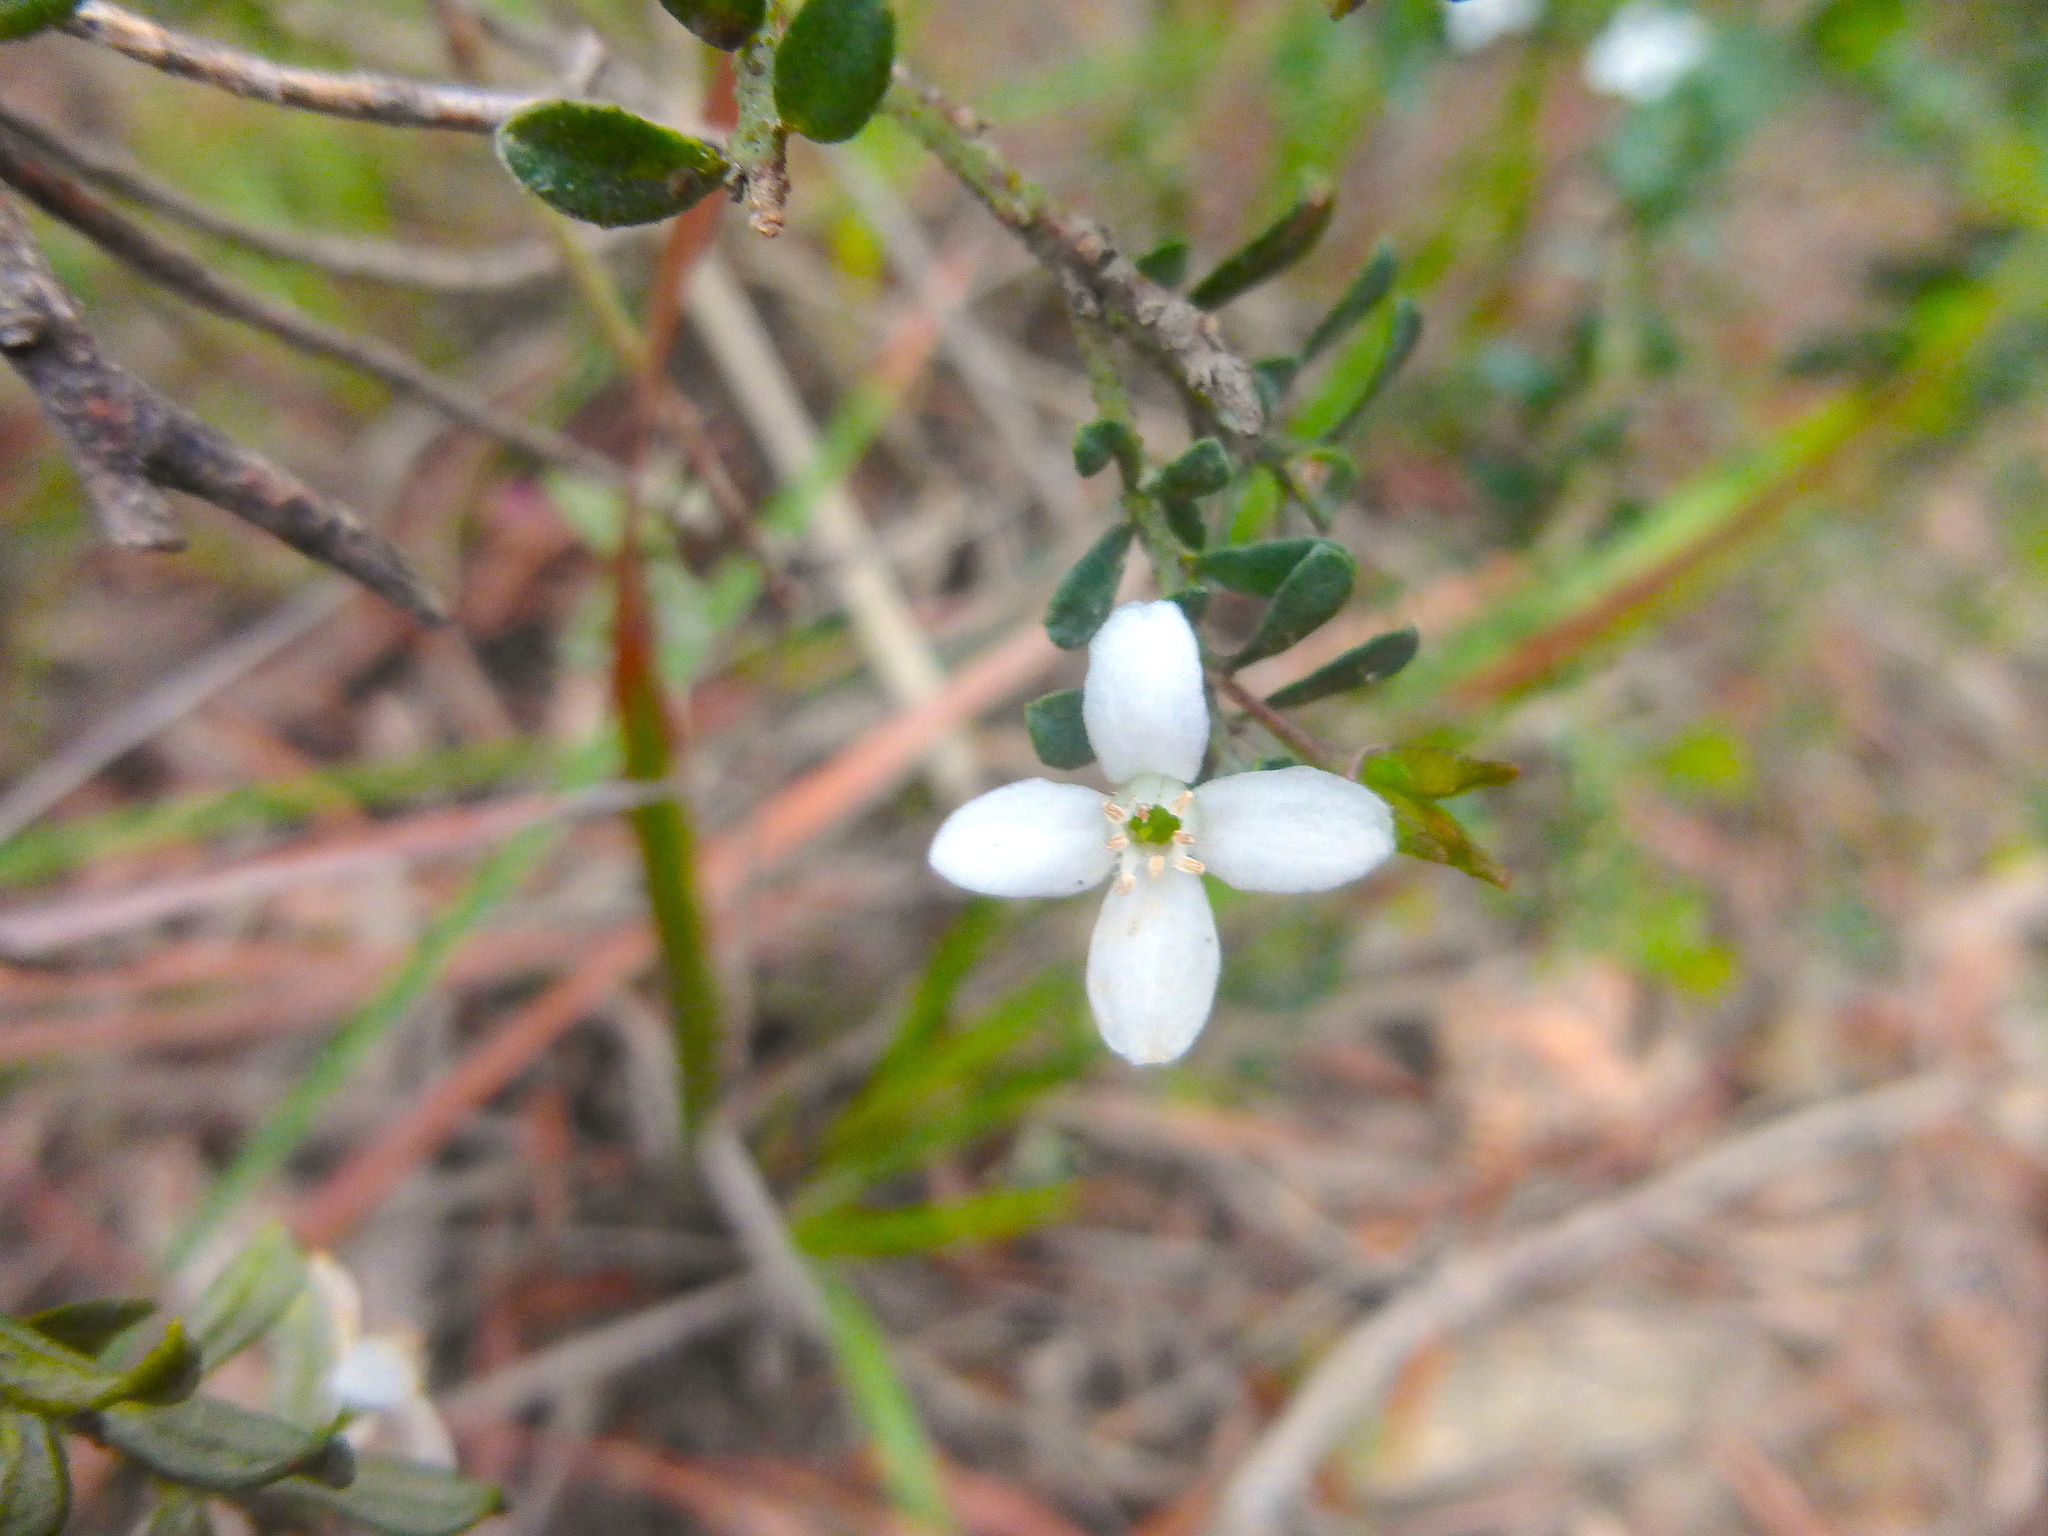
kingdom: Plantae
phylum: Tracheophyta
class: Magnoliopsida
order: Sapindales
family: Rutaceae
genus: Philotheca
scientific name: Philotheca virgata
